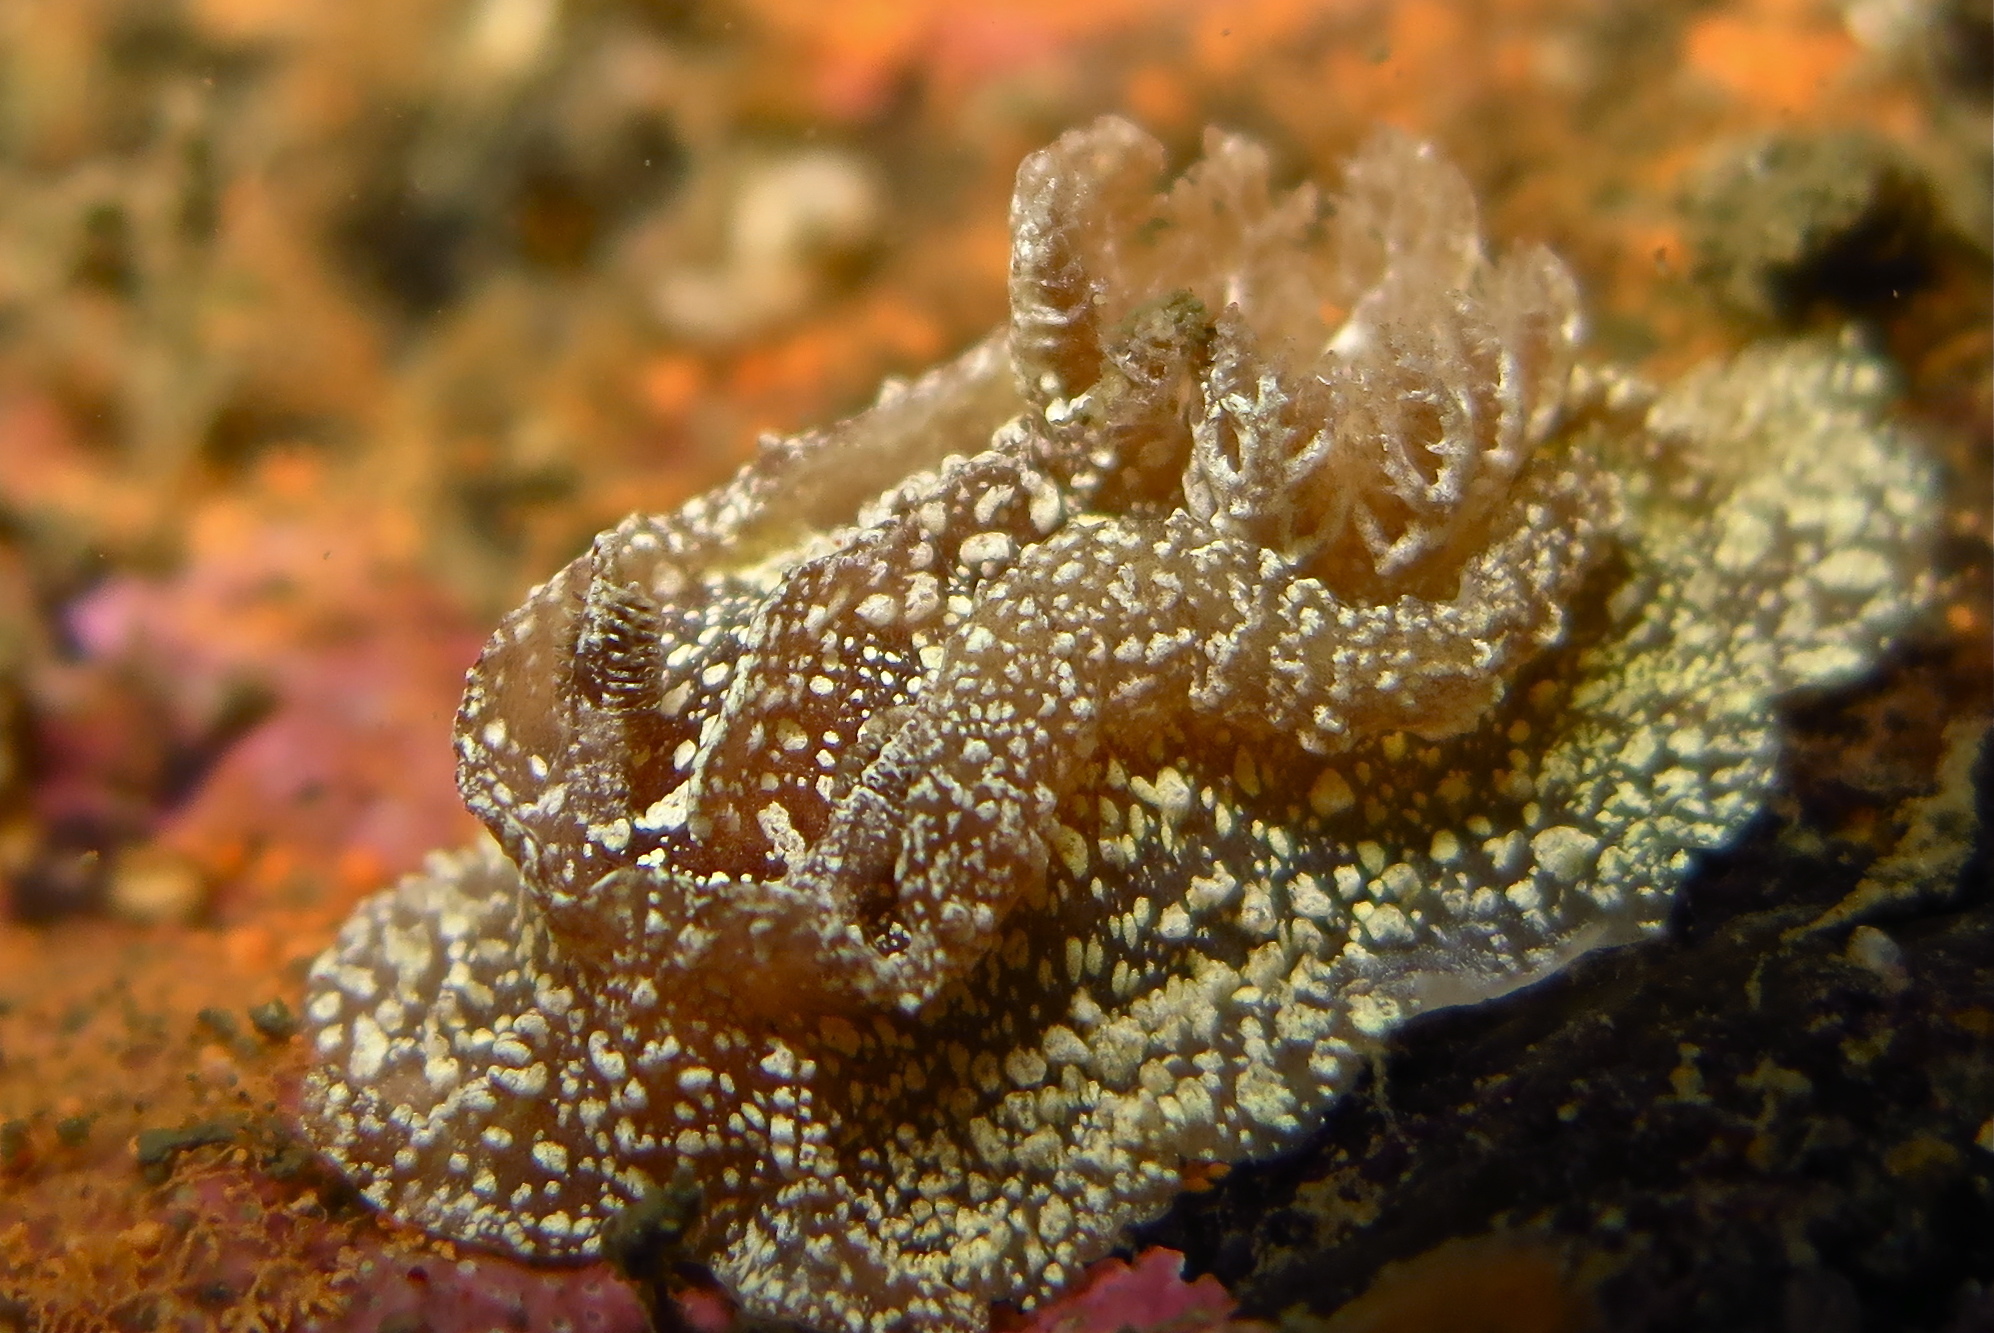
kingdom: Animalia
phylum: Mollusca
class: Gastropoda
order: Nudibranchia
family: Goniodorididae
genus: Pelagella
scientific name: Pelagella castanea
